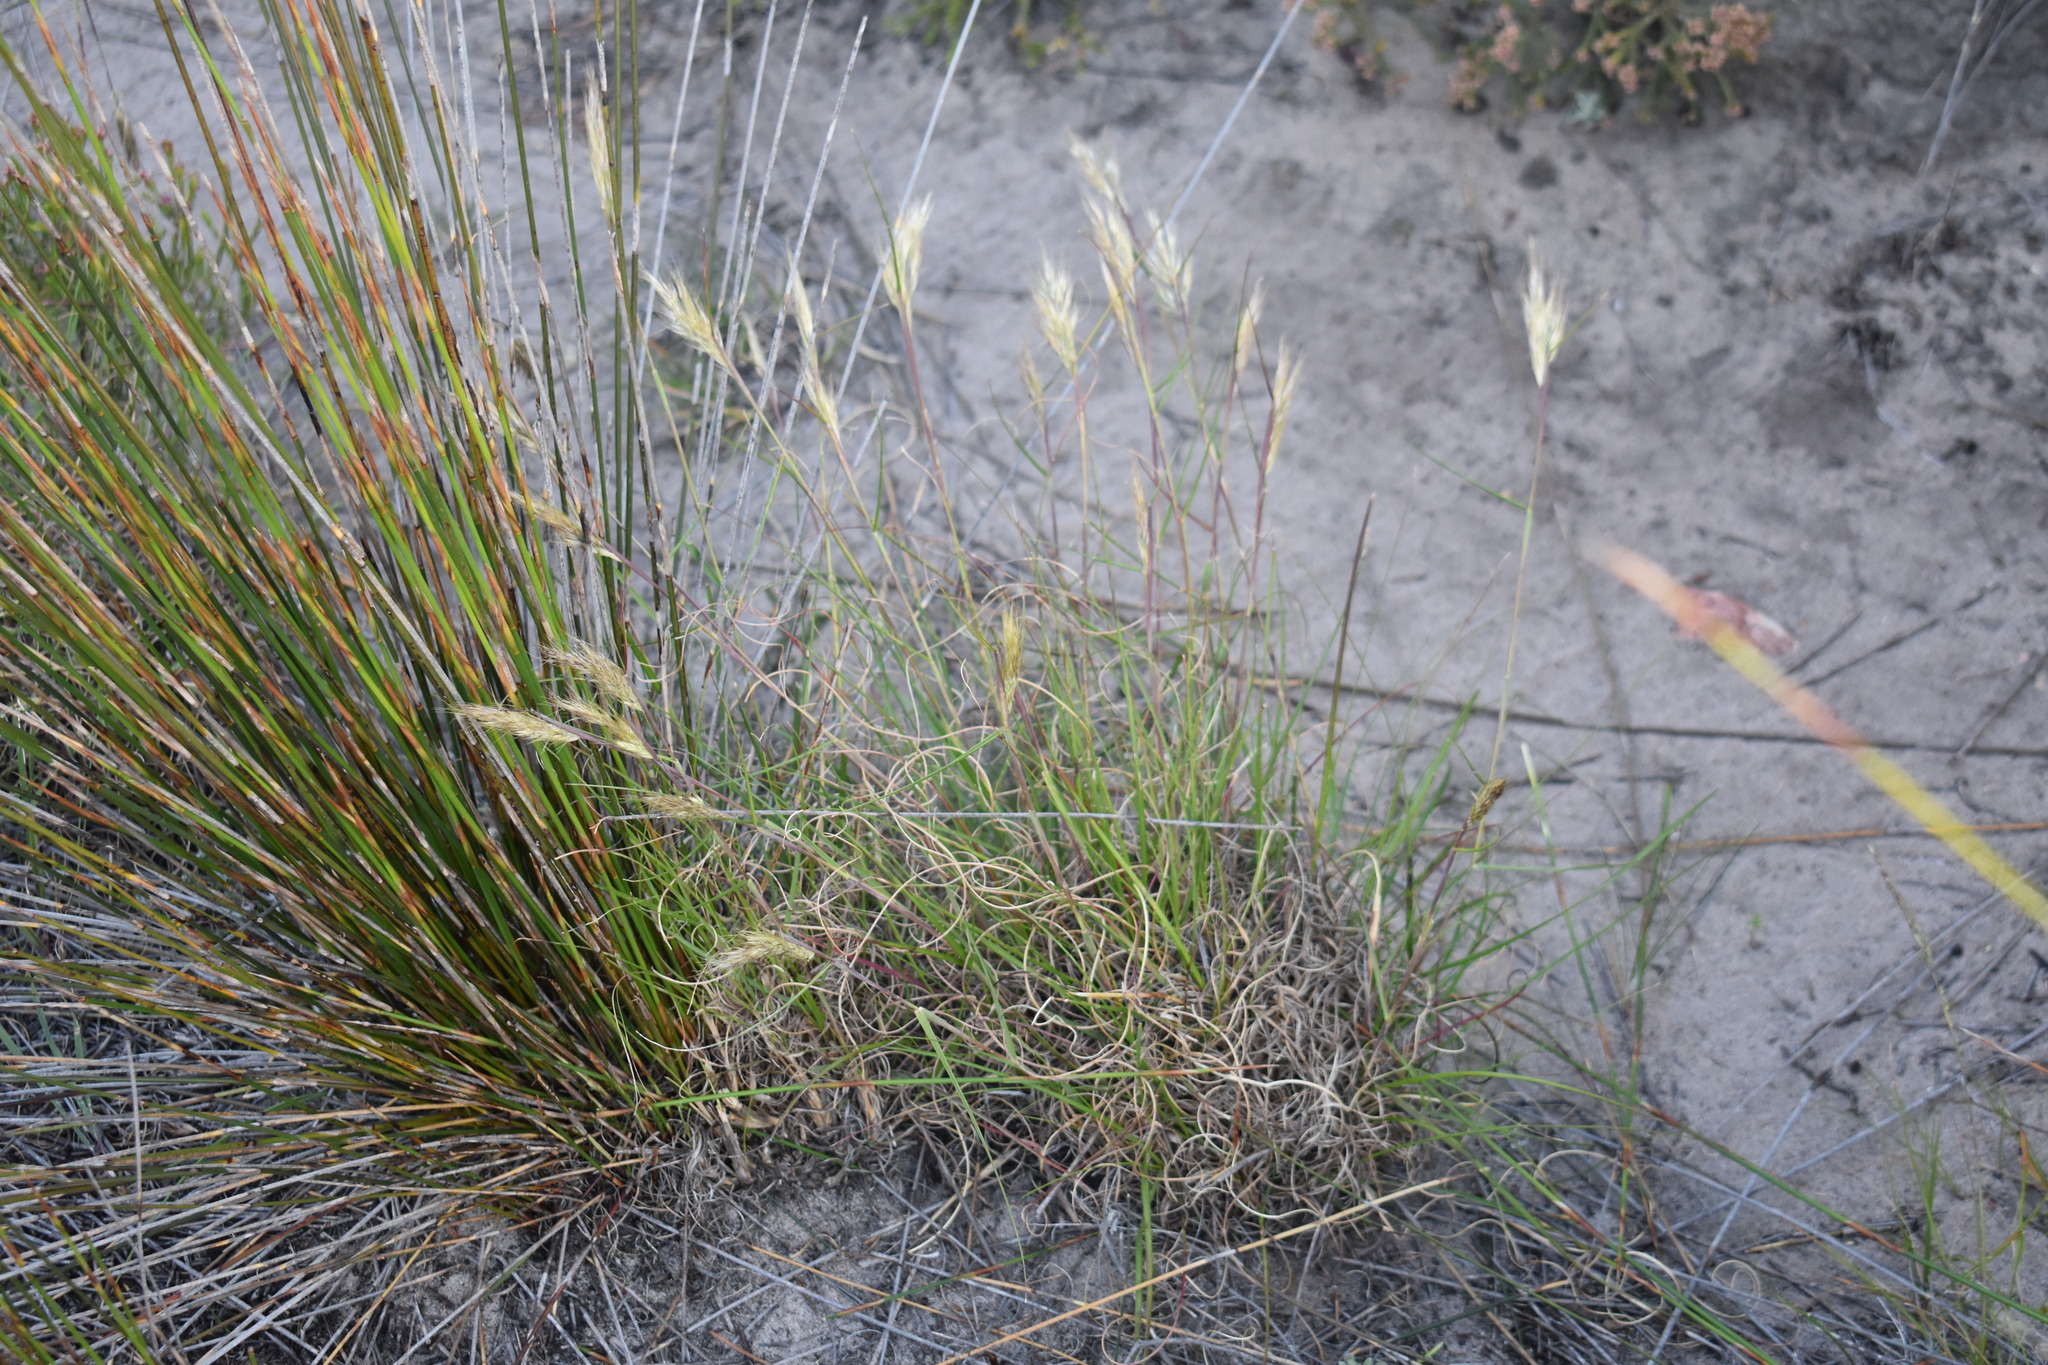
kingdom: Plantae
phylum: Tracheophyta
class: Liliopsida
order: Poales
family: Poaceae
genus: Pentameris
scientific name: Pentameris curvifolia
